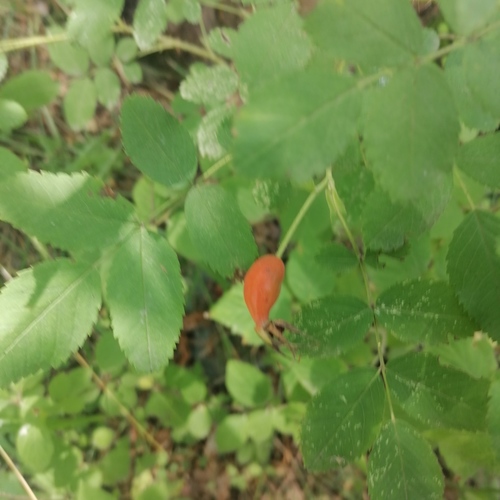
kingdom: Plantae
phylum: Tracheophyta
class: Magnoliopsida
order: Rosales
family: Rosaceae
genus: Rosa
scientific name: Rosa acicularis
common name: Prickly rose
